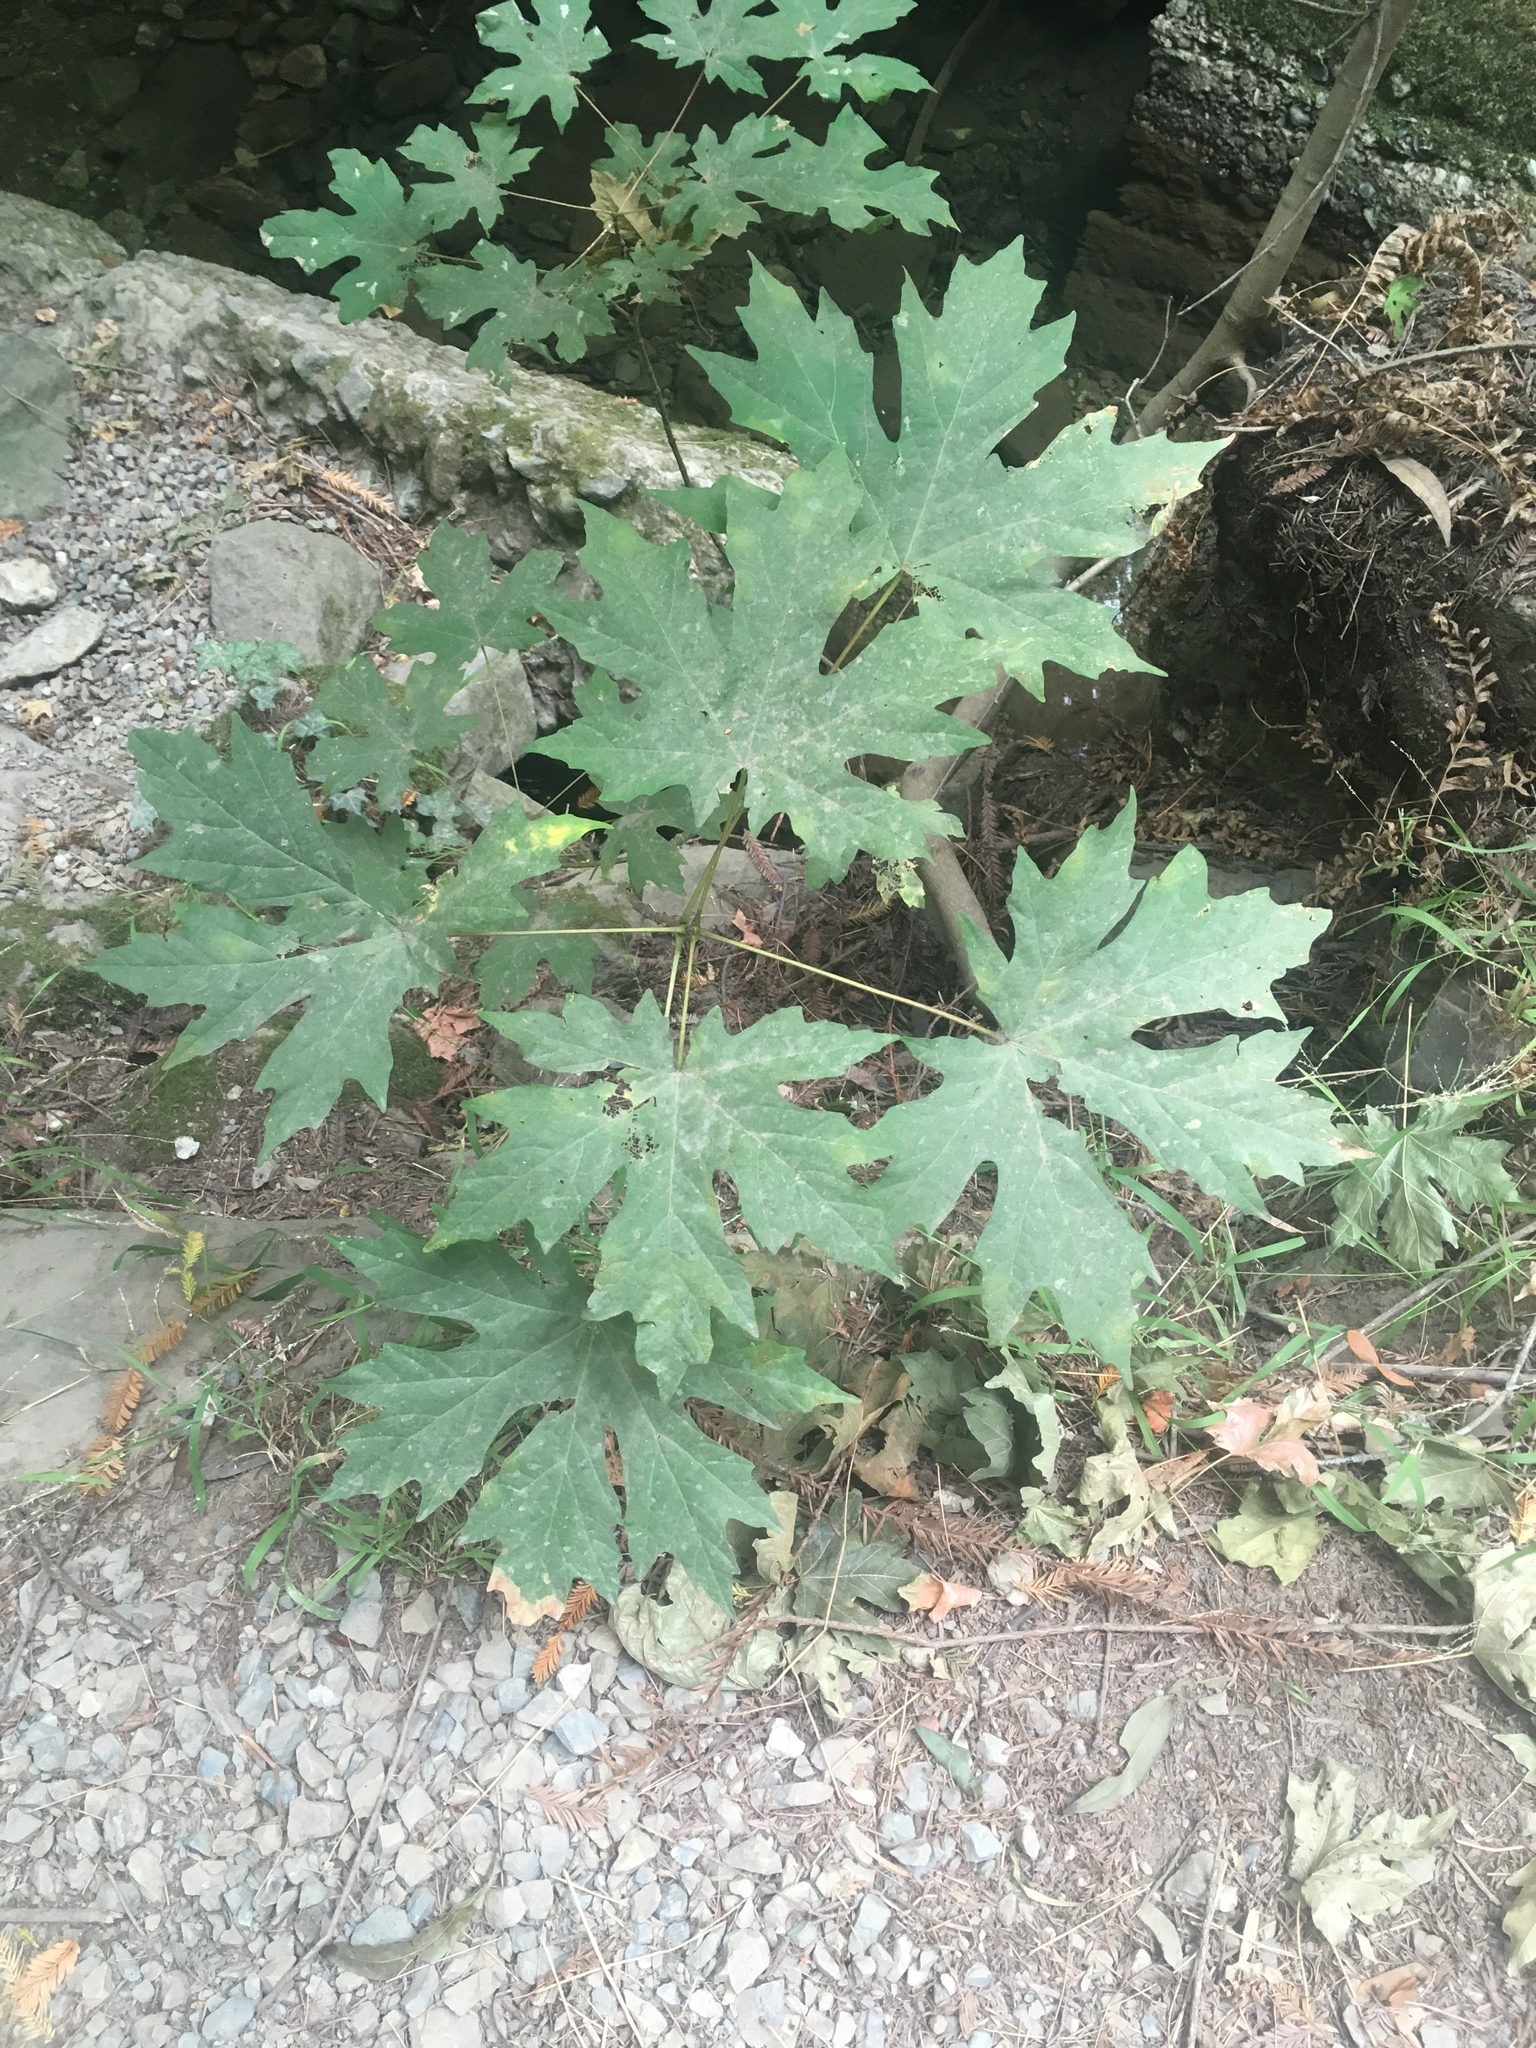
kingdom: Plantae
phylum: Tracheophyta
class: Magnoliopsida
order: Sapindales
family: Sapindaceae
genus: Acer
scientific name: Acer macrophyllum
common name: Oregon maple
